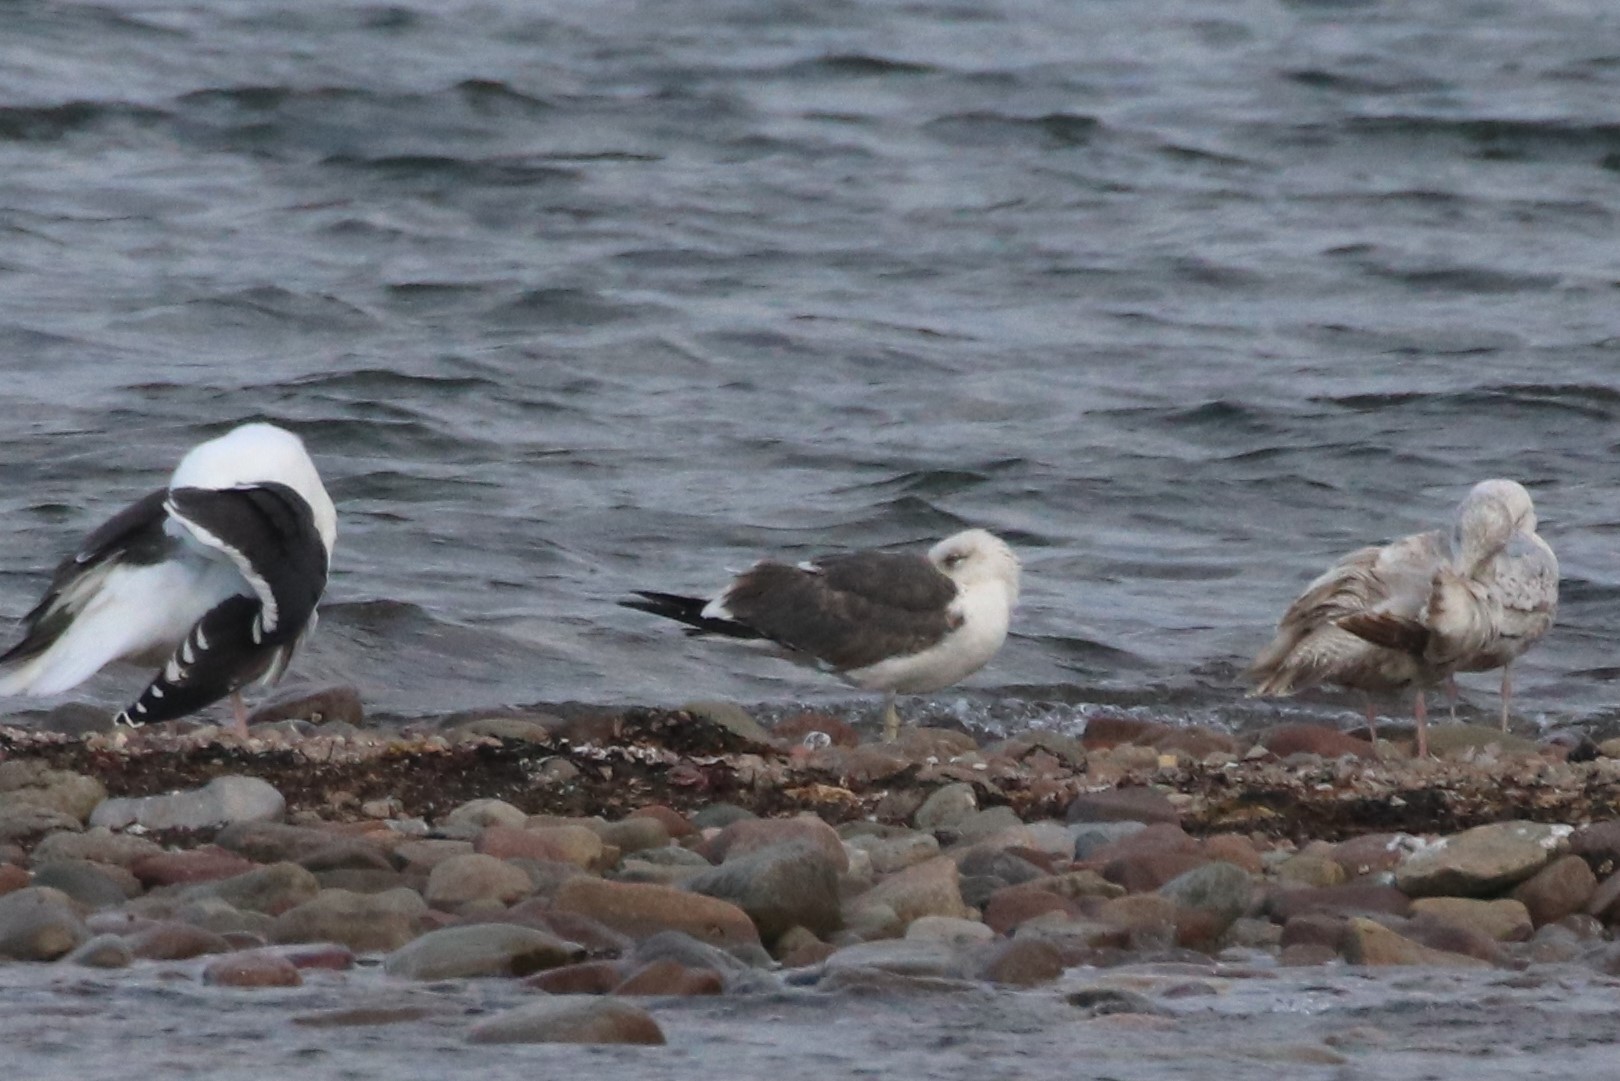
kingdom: Animalia
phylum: Chordata
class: Aves
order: Charadriiformes
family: Laridae
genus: Larus
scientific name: Larus fuscus
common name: Lesser black-backed gull
